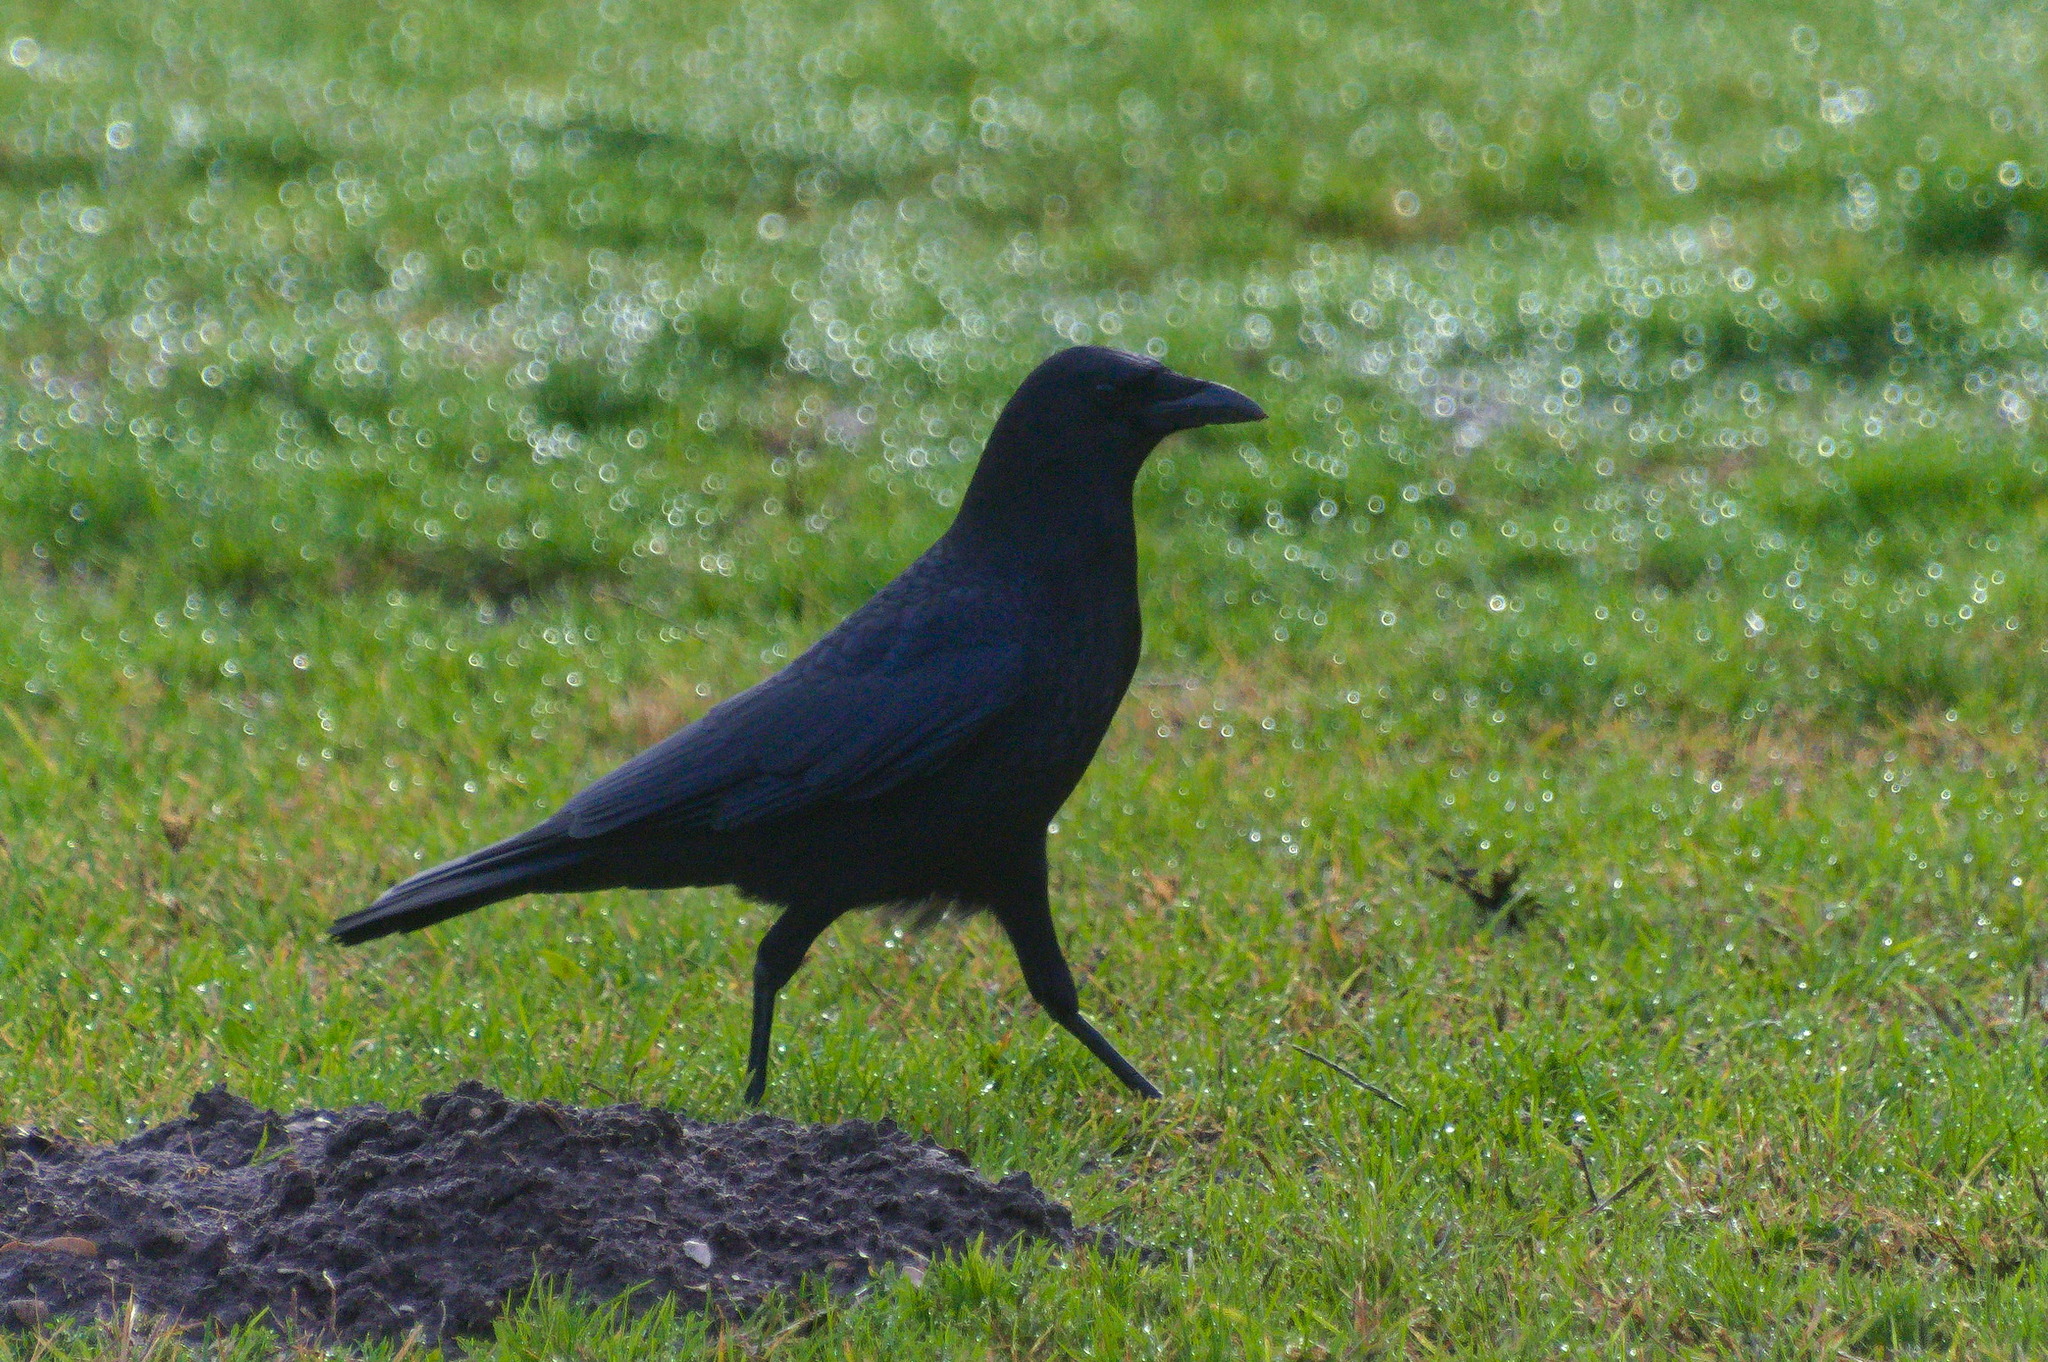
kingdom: Animalia
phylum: Chordata
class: Aves
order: Passeriformes
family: Corvidae
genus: Corvus
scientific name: Corvus brachyrhynchos
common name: American crow
